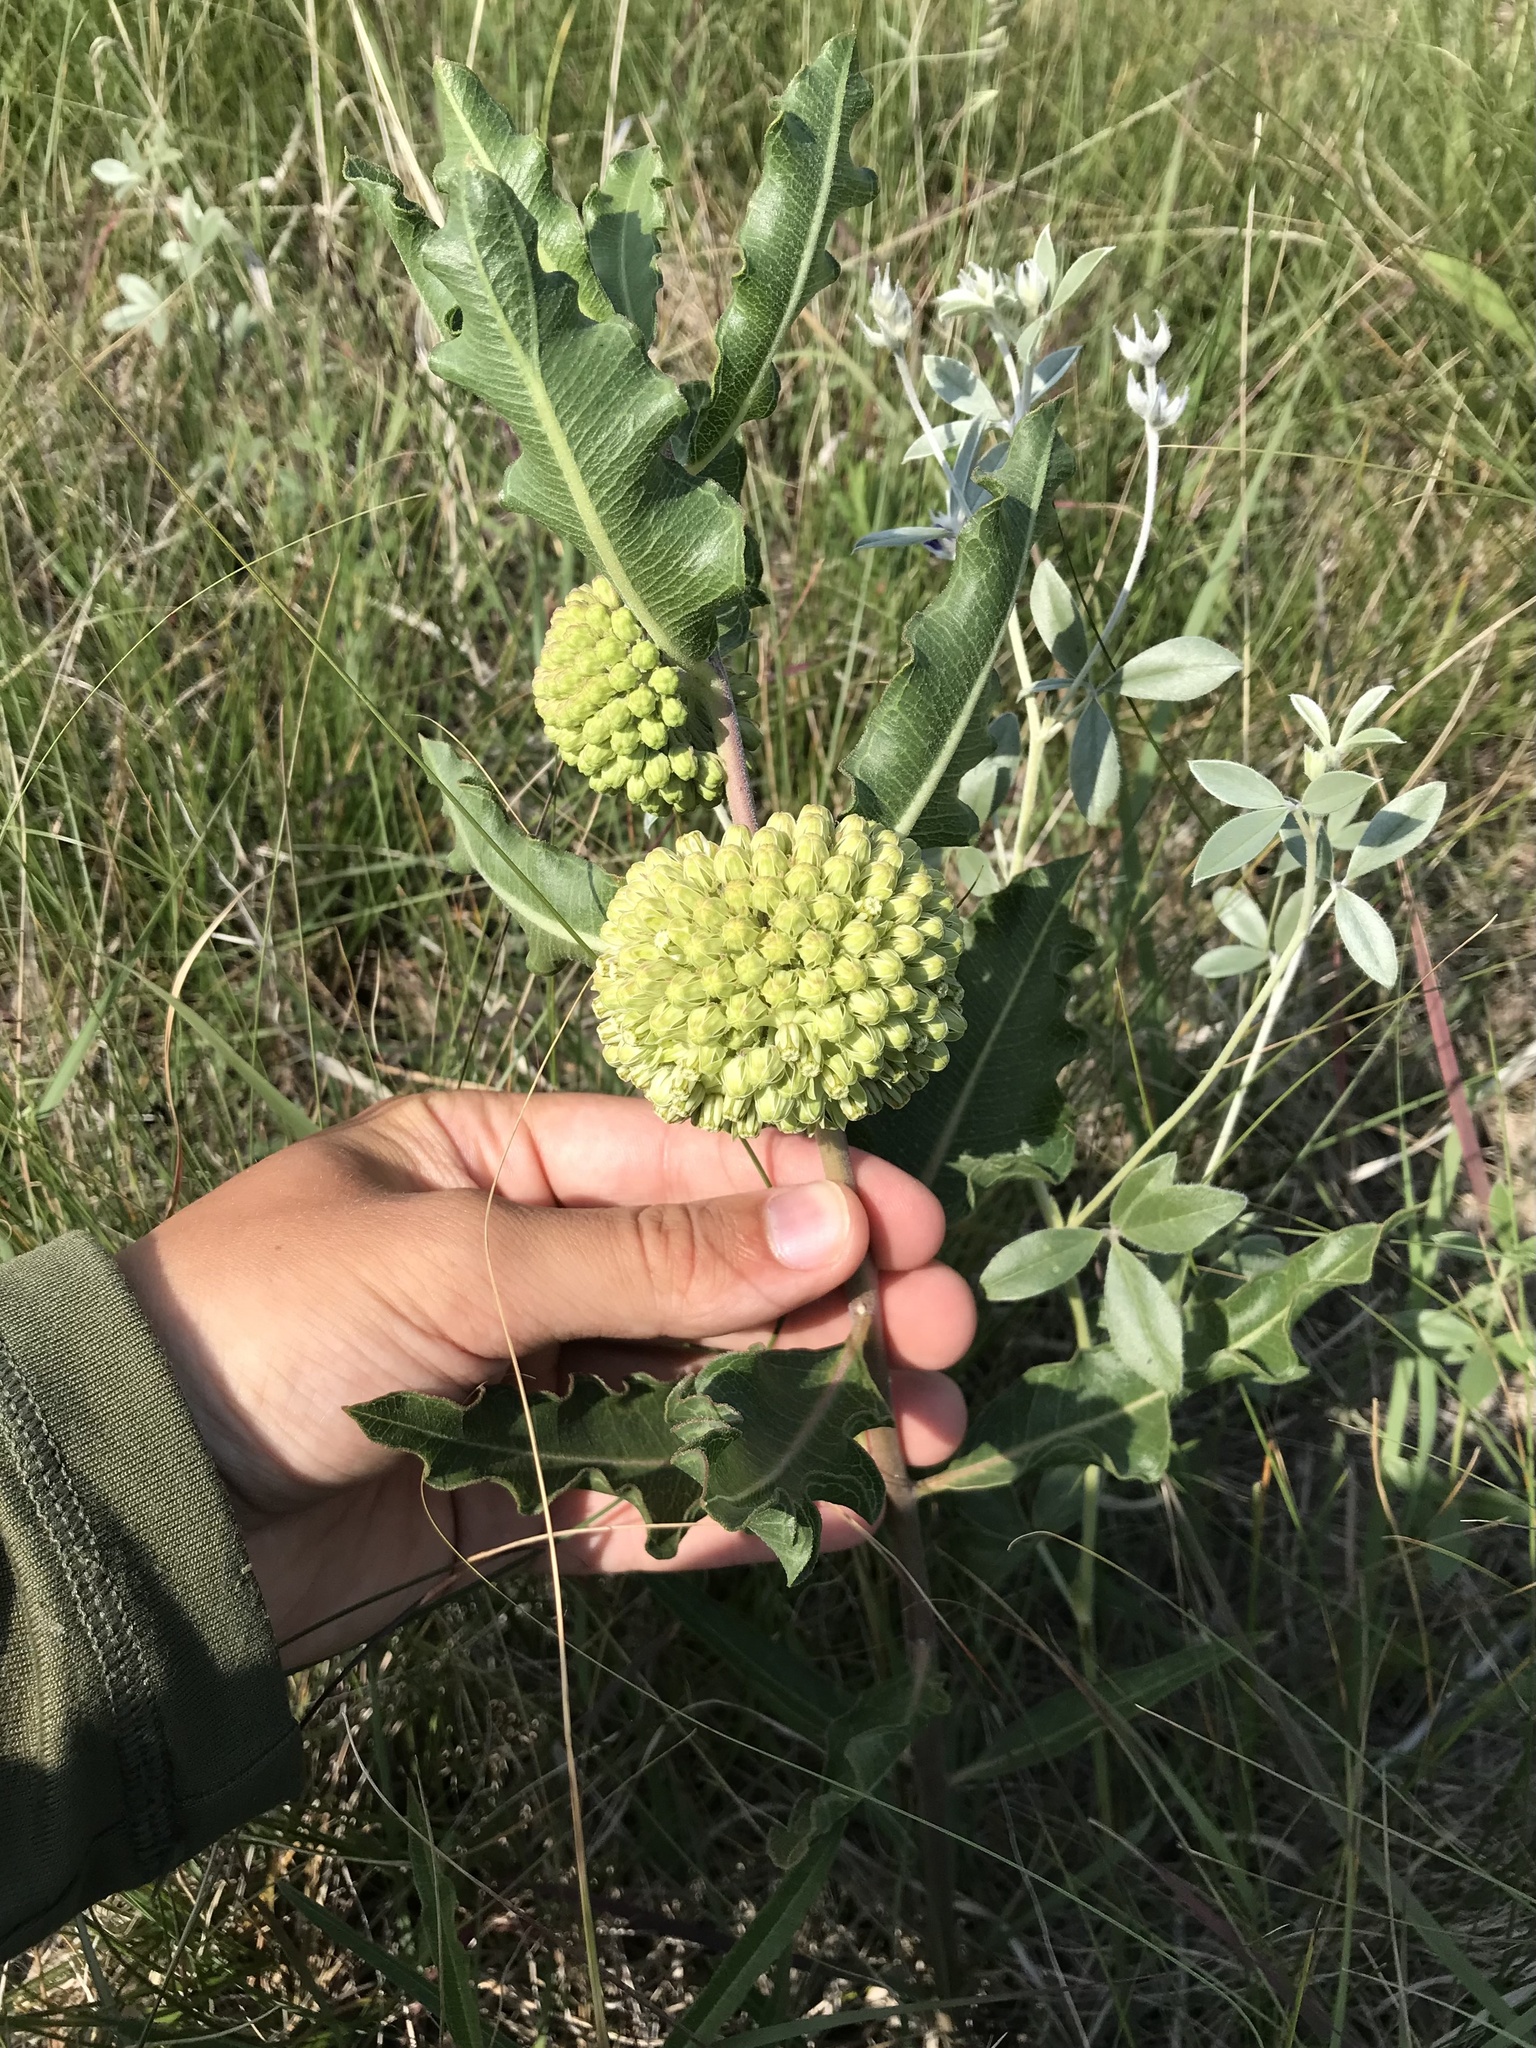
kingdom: Plantae
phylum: Tracheophyta
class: Magnoliopsida
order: Gentianales
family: Apocynaceae
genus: Asclepias
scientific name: Asclepias viridiflora
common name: Green comet milkweed
